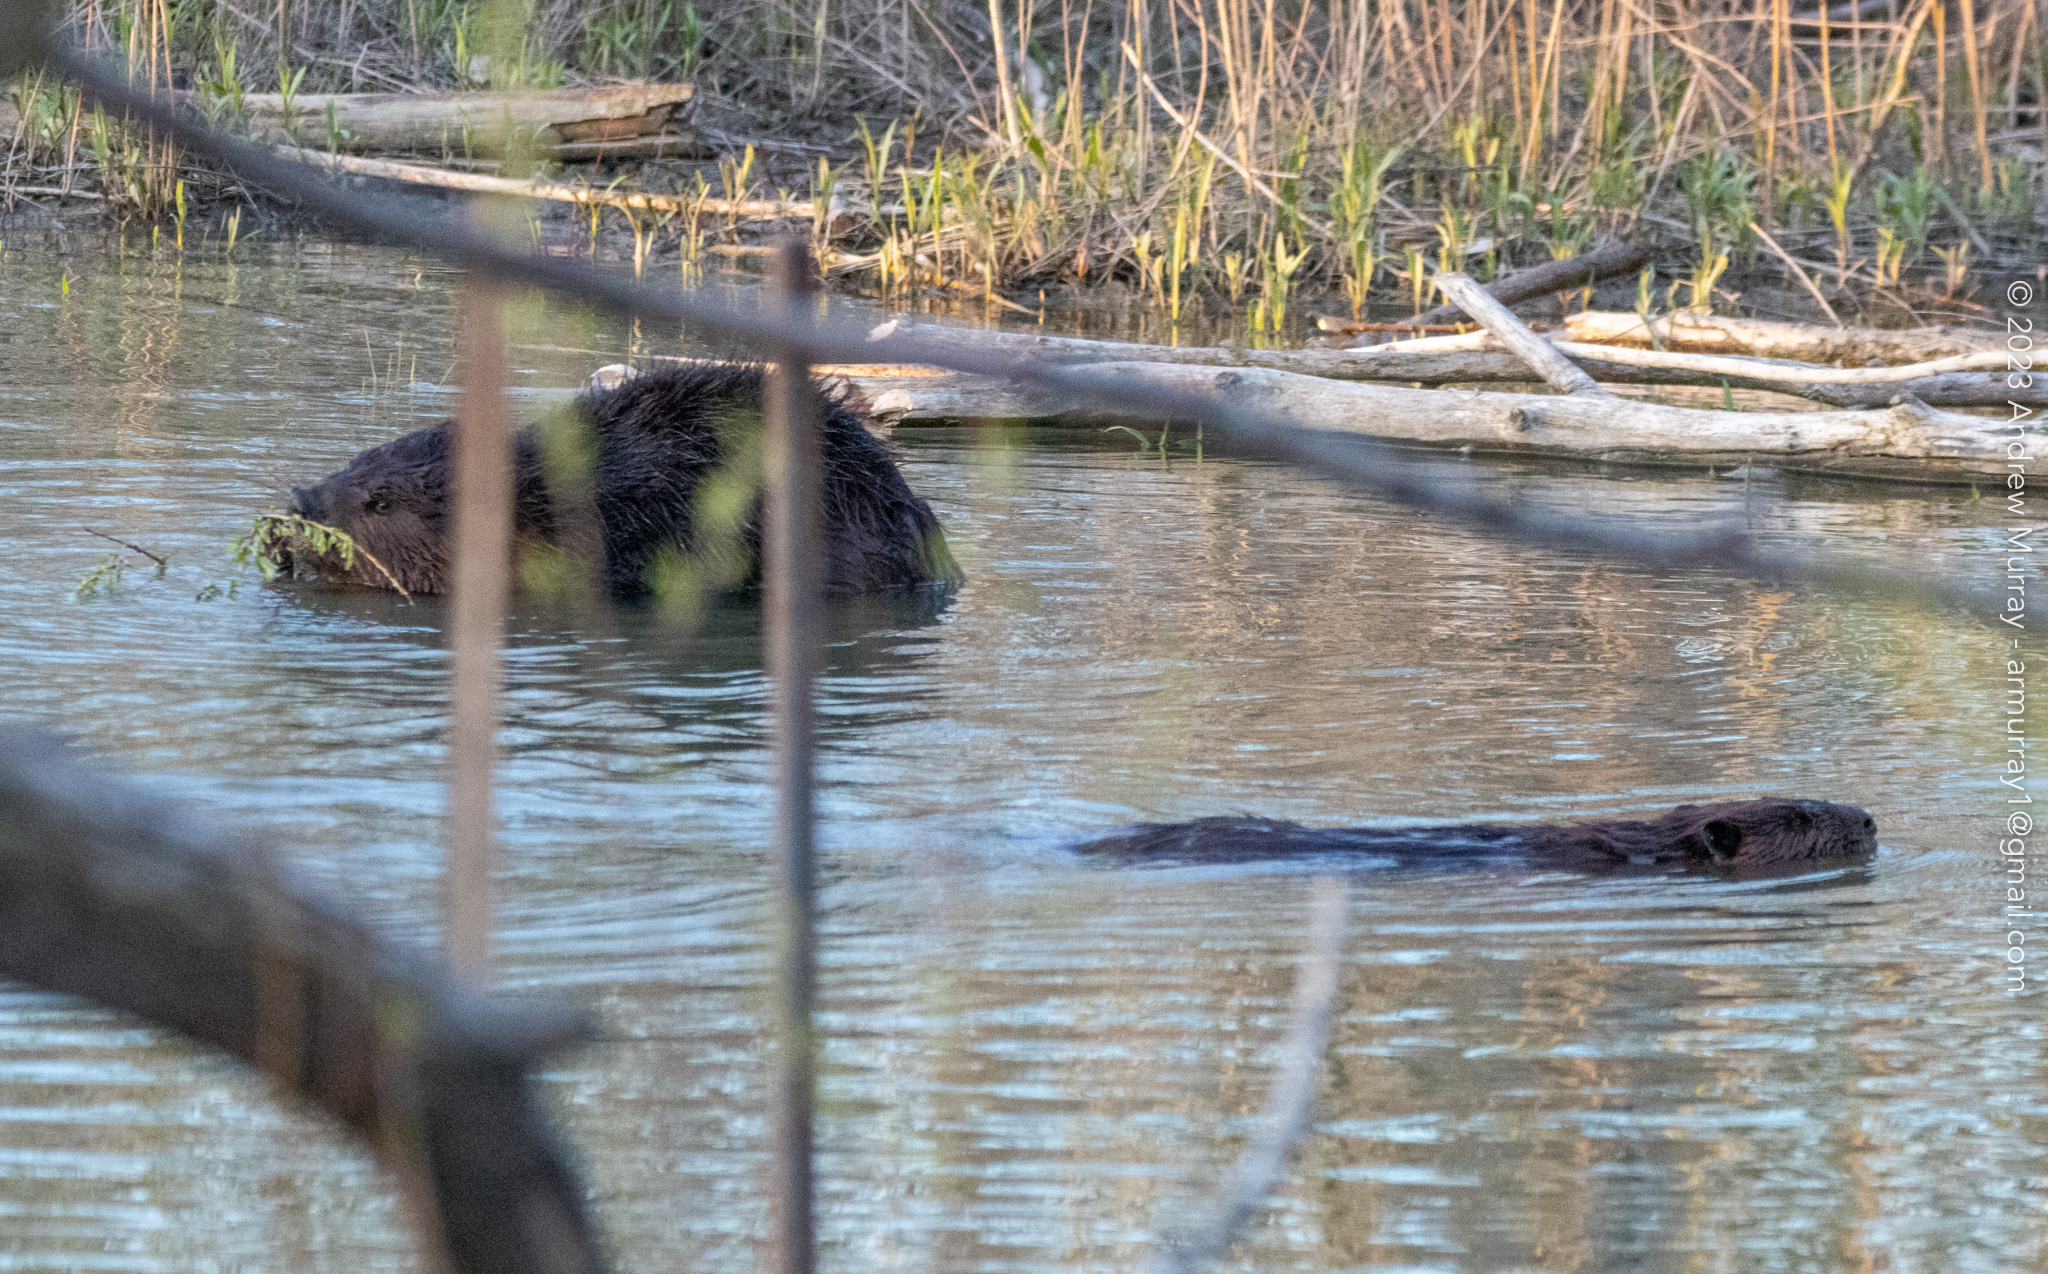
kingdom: Animalia
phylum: Chordata
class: Mammalia
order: Rodentia
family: Castoridae
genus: Castor
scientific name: Castor canadensis
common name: American beaver
